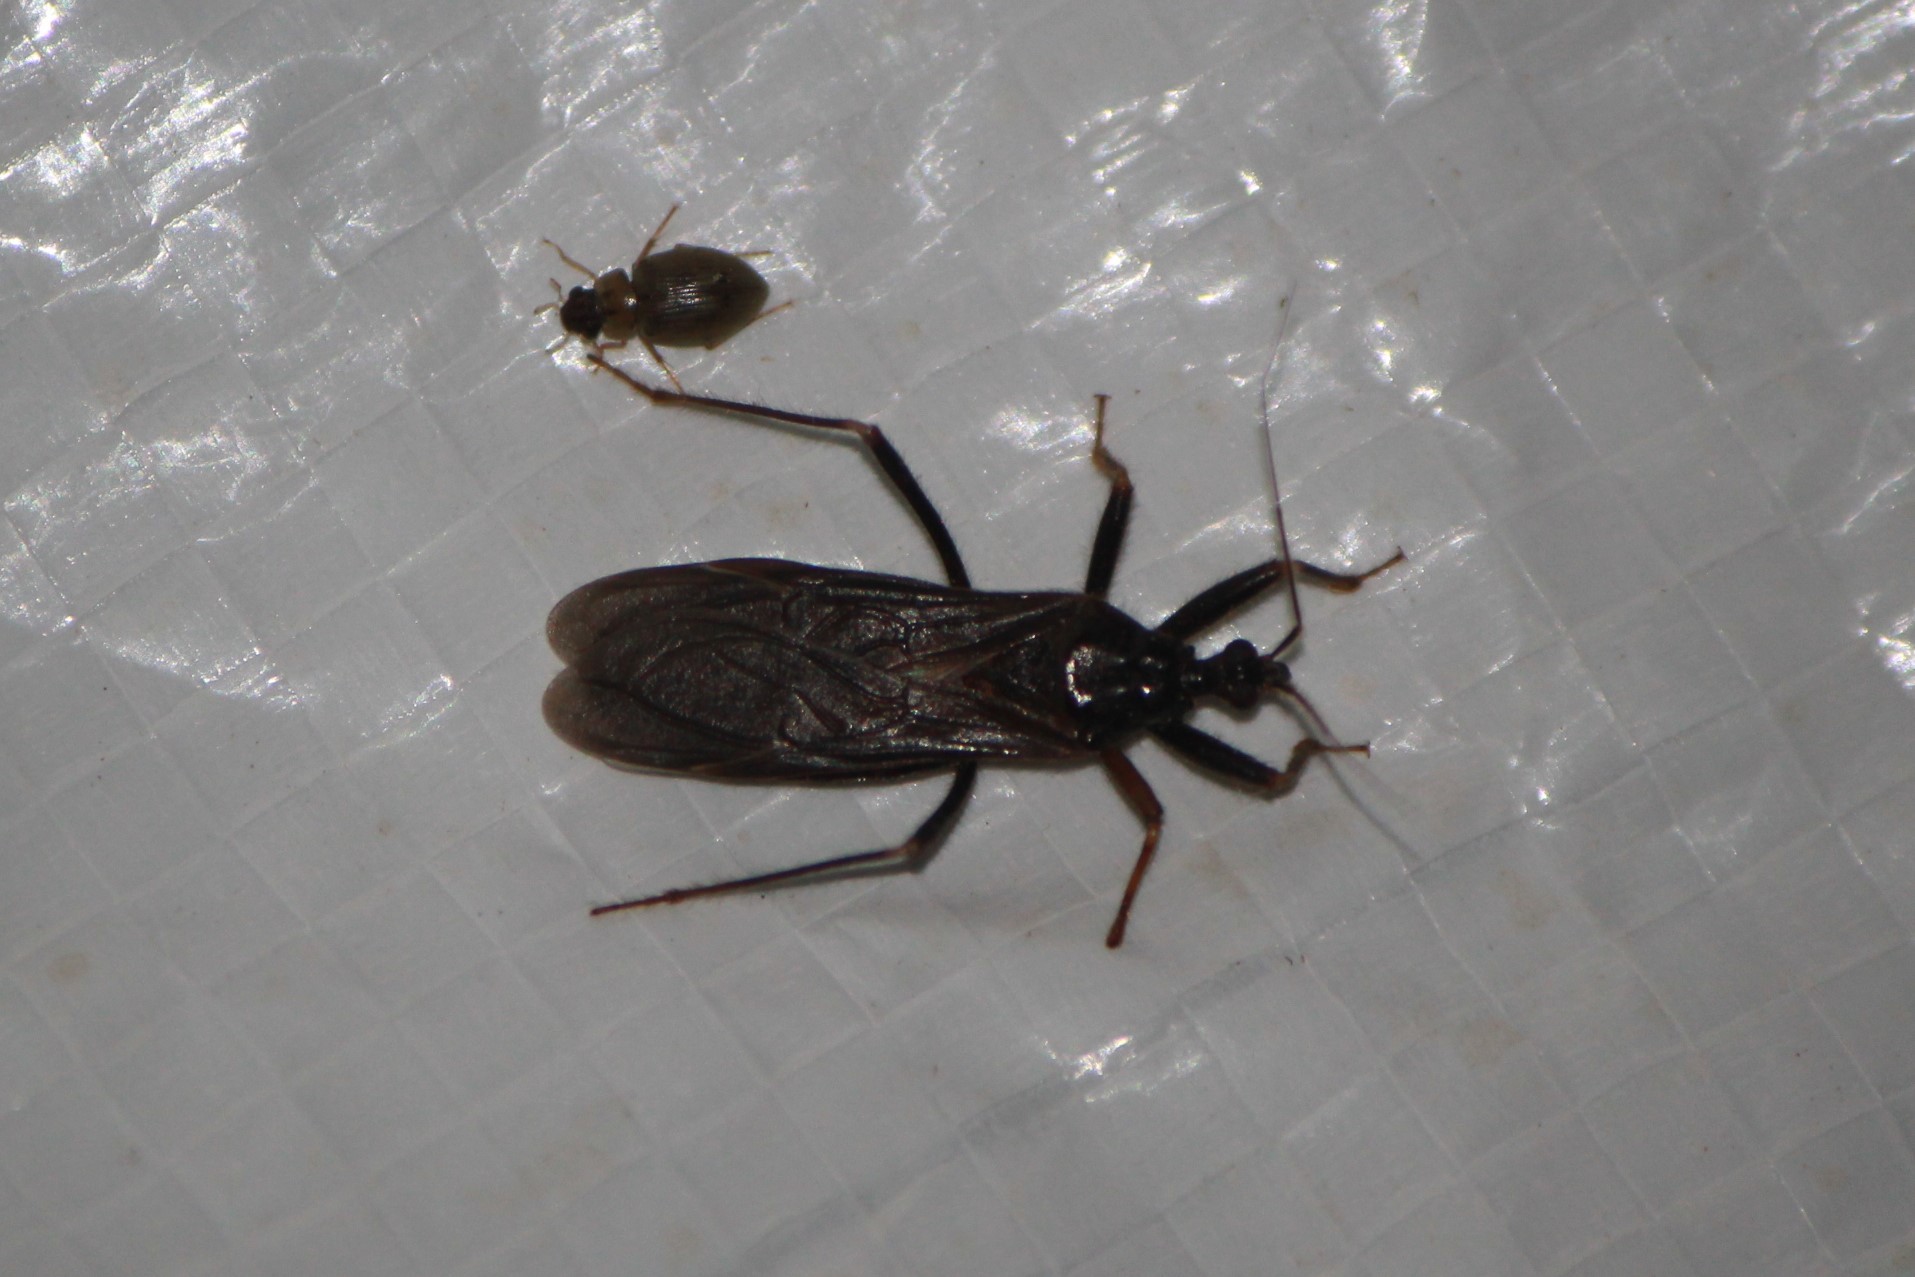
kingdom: Animalia
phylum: Arthropoda
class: Insecta
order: Hemiptera
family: Reduviidae
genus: Reduvius
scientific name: Reduvius personatus
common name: Masked hunter
